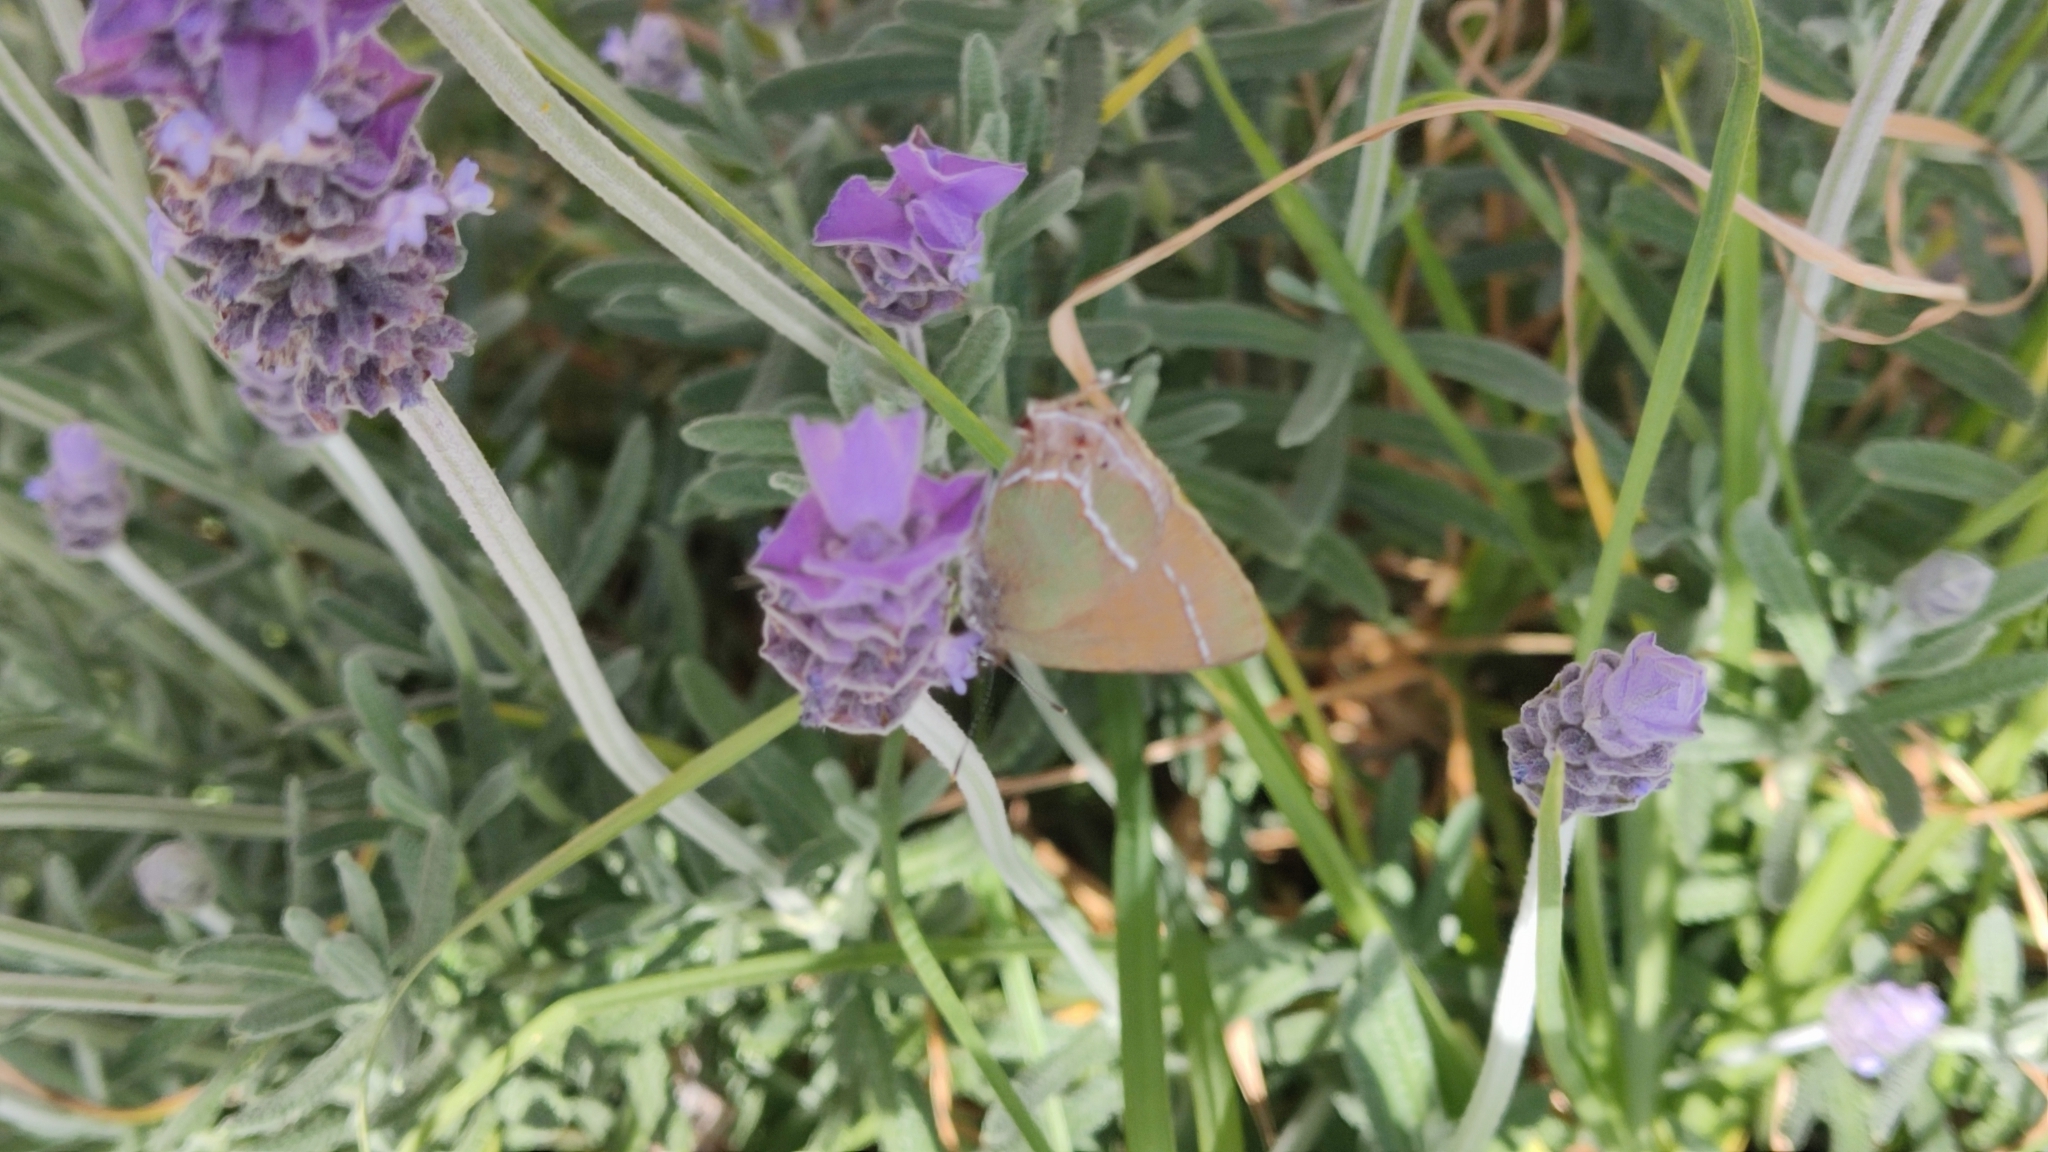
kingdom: Animalia
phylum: Arthropoda
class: Insecta
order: Lepidoptera
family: Lycaenidae
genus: Xamia
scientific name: Xamia xami
